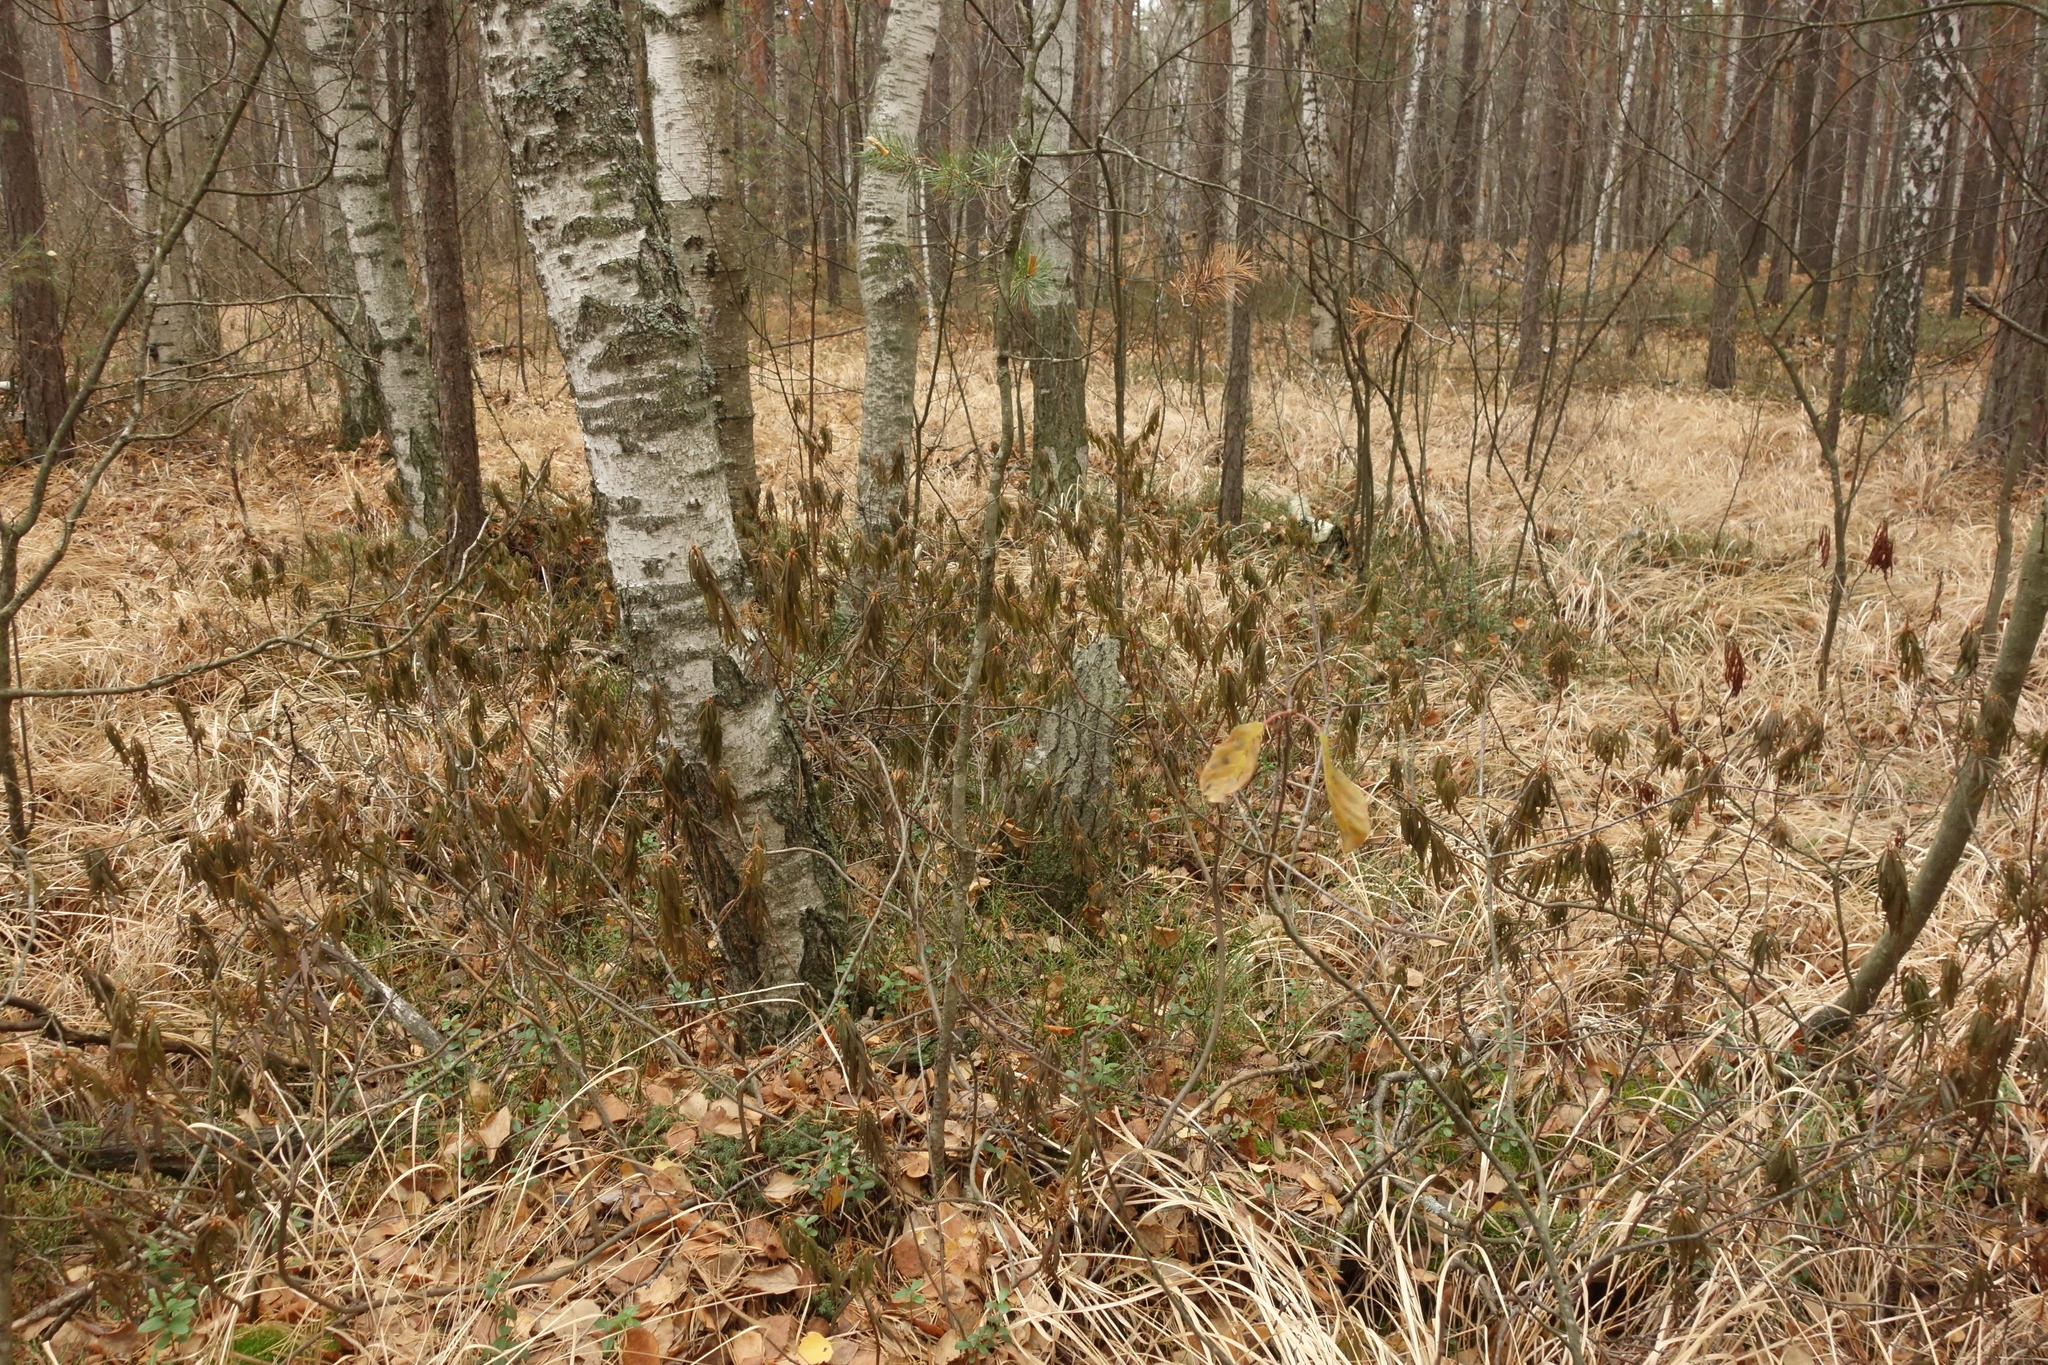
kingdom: Plantae
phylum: Tracheophyta
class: Magnoliopsida
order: Ericales
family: Ericaceae
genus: Rhododendron
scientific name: Rhododendron tomentosum
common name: Marsh labrador tea
